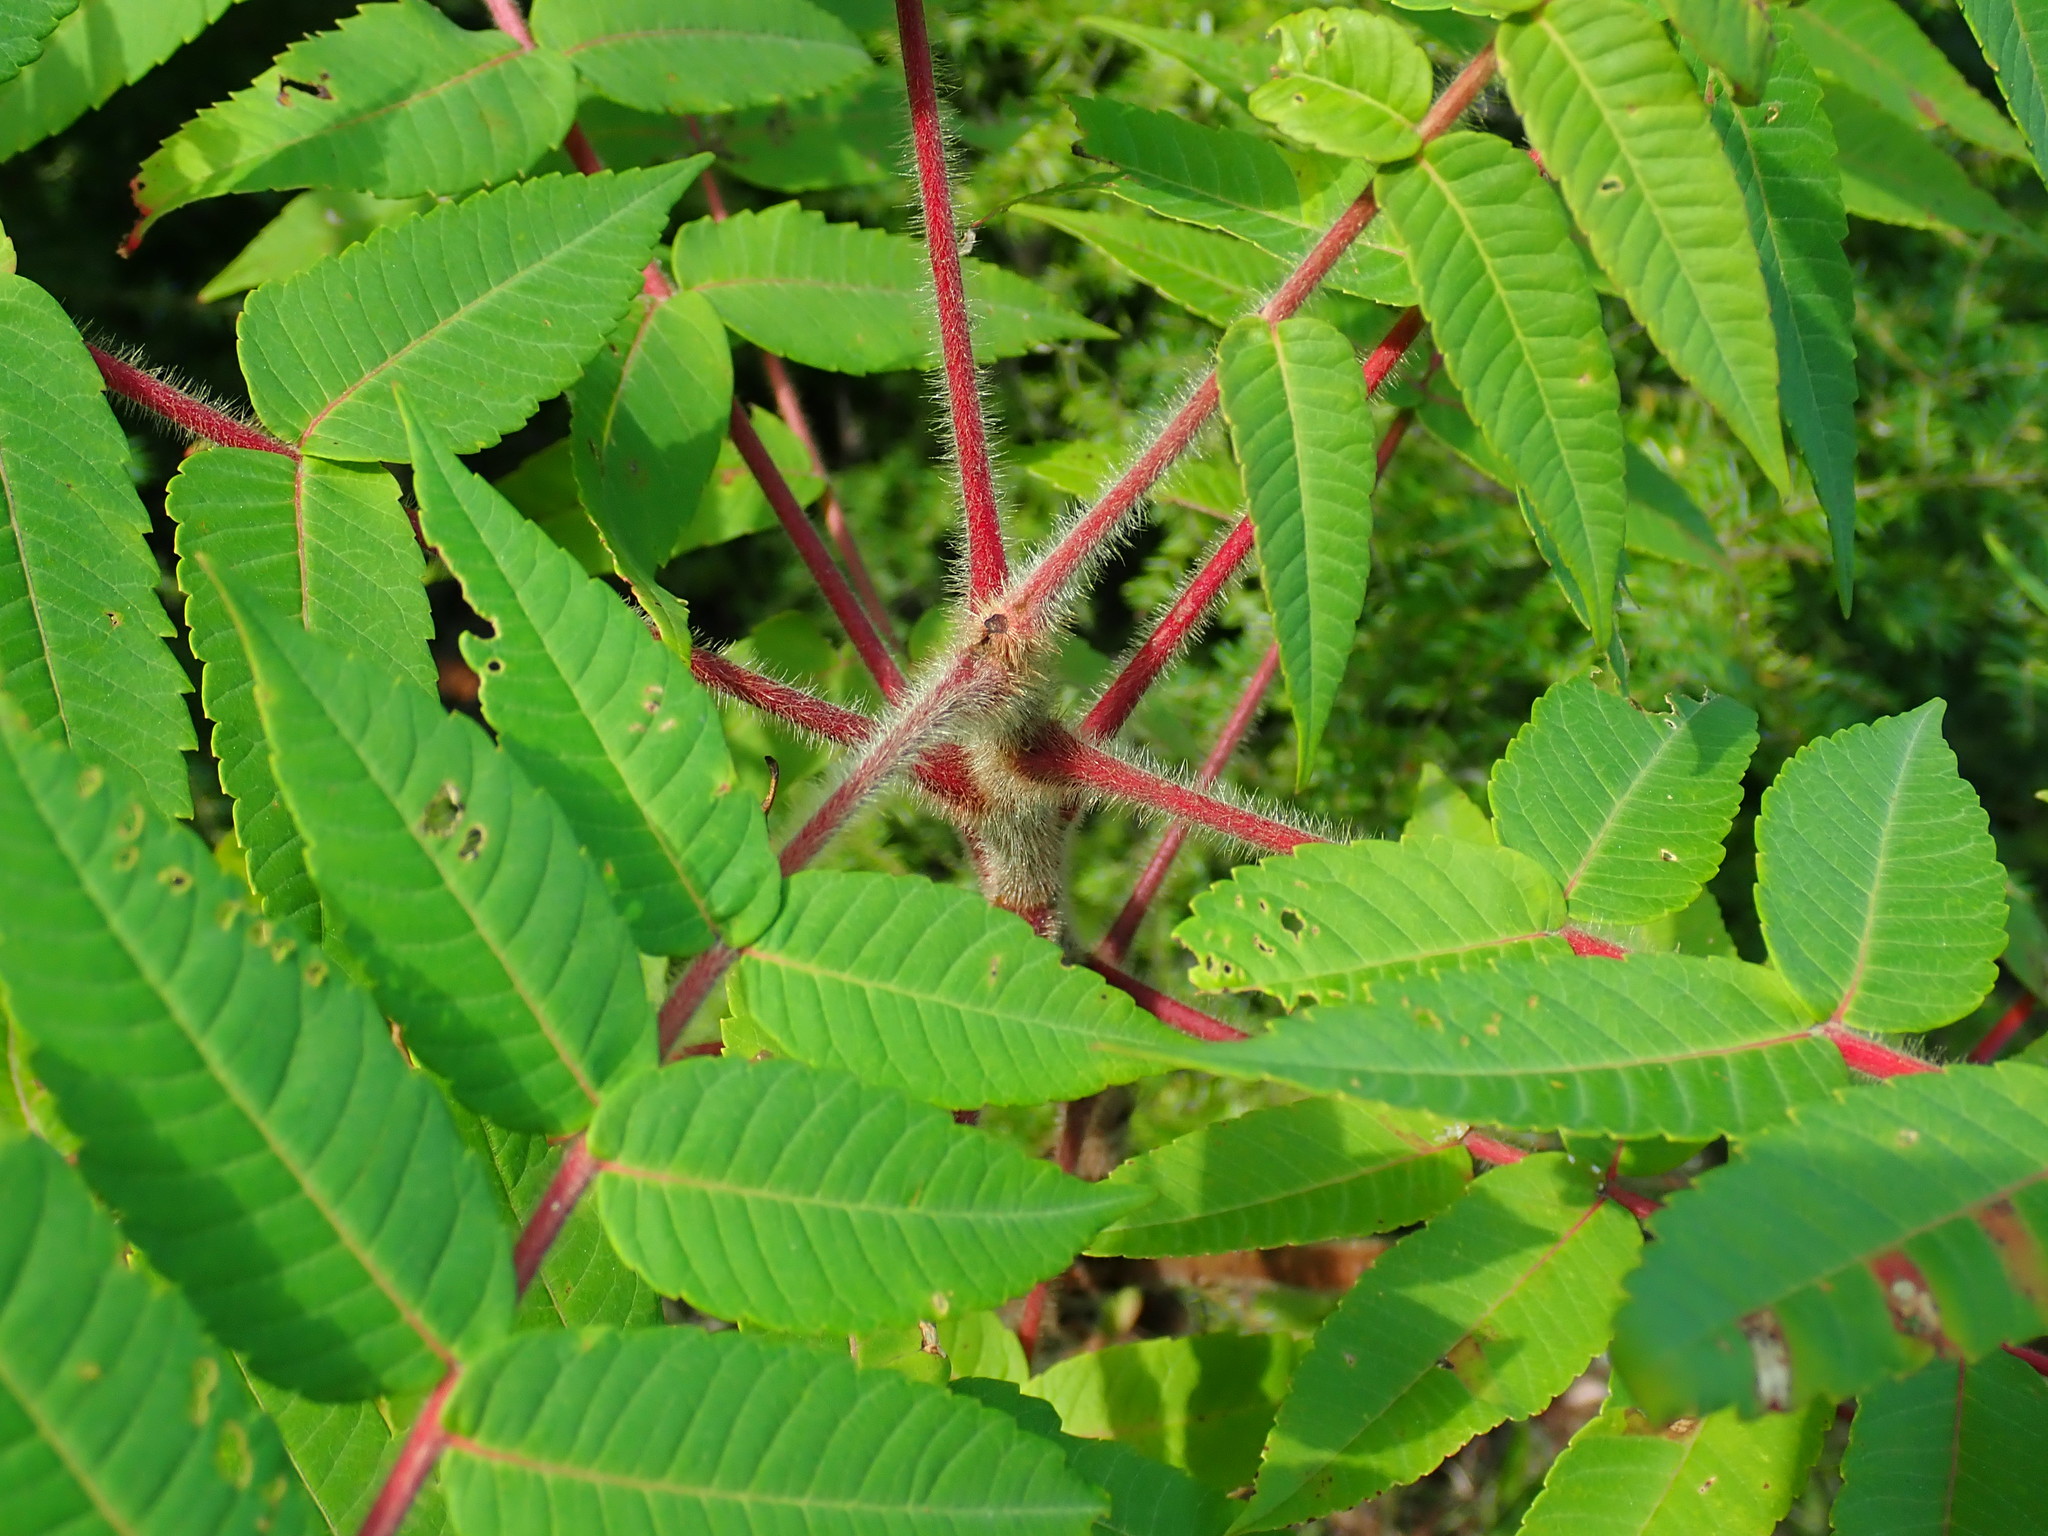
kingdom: Plantae
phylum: Tracheophyta
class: Magnoliopsida
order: Sapindales
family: Anacardiaceae
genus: Rhus
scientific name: Rhus typhina
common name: Staghorn sumac
